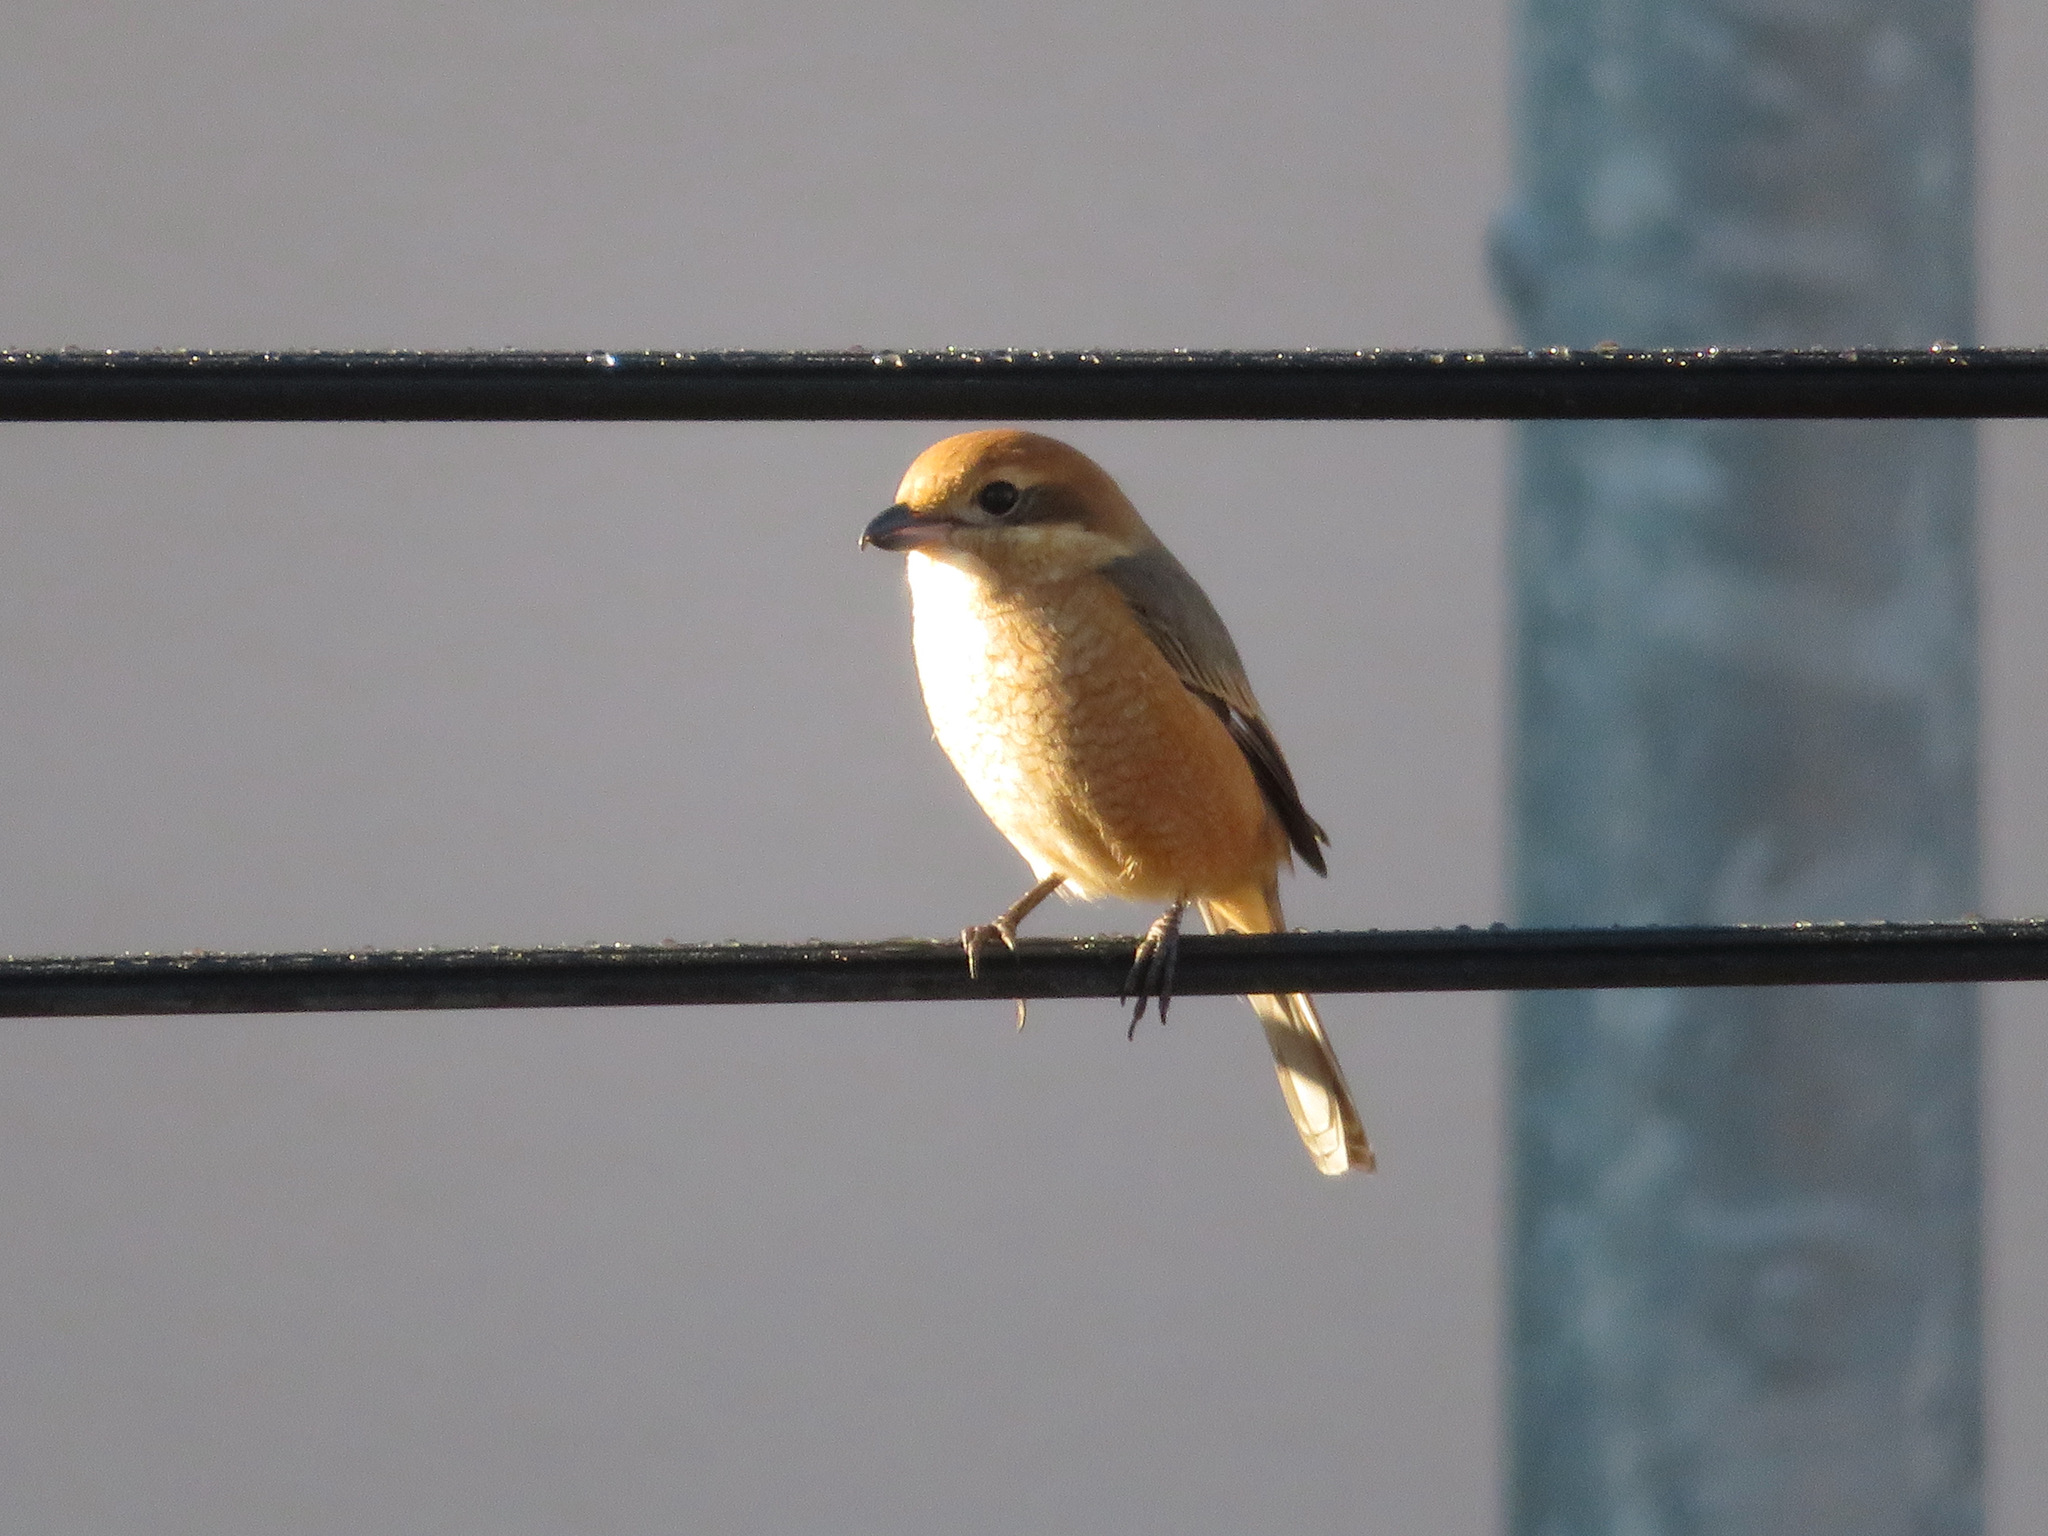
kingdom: Animalia
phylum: Chordata
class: Aves
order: Passeriformes
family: Laniidae
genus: Lanius
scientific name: Lanius bucephalus
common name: Bull-headed shrike
